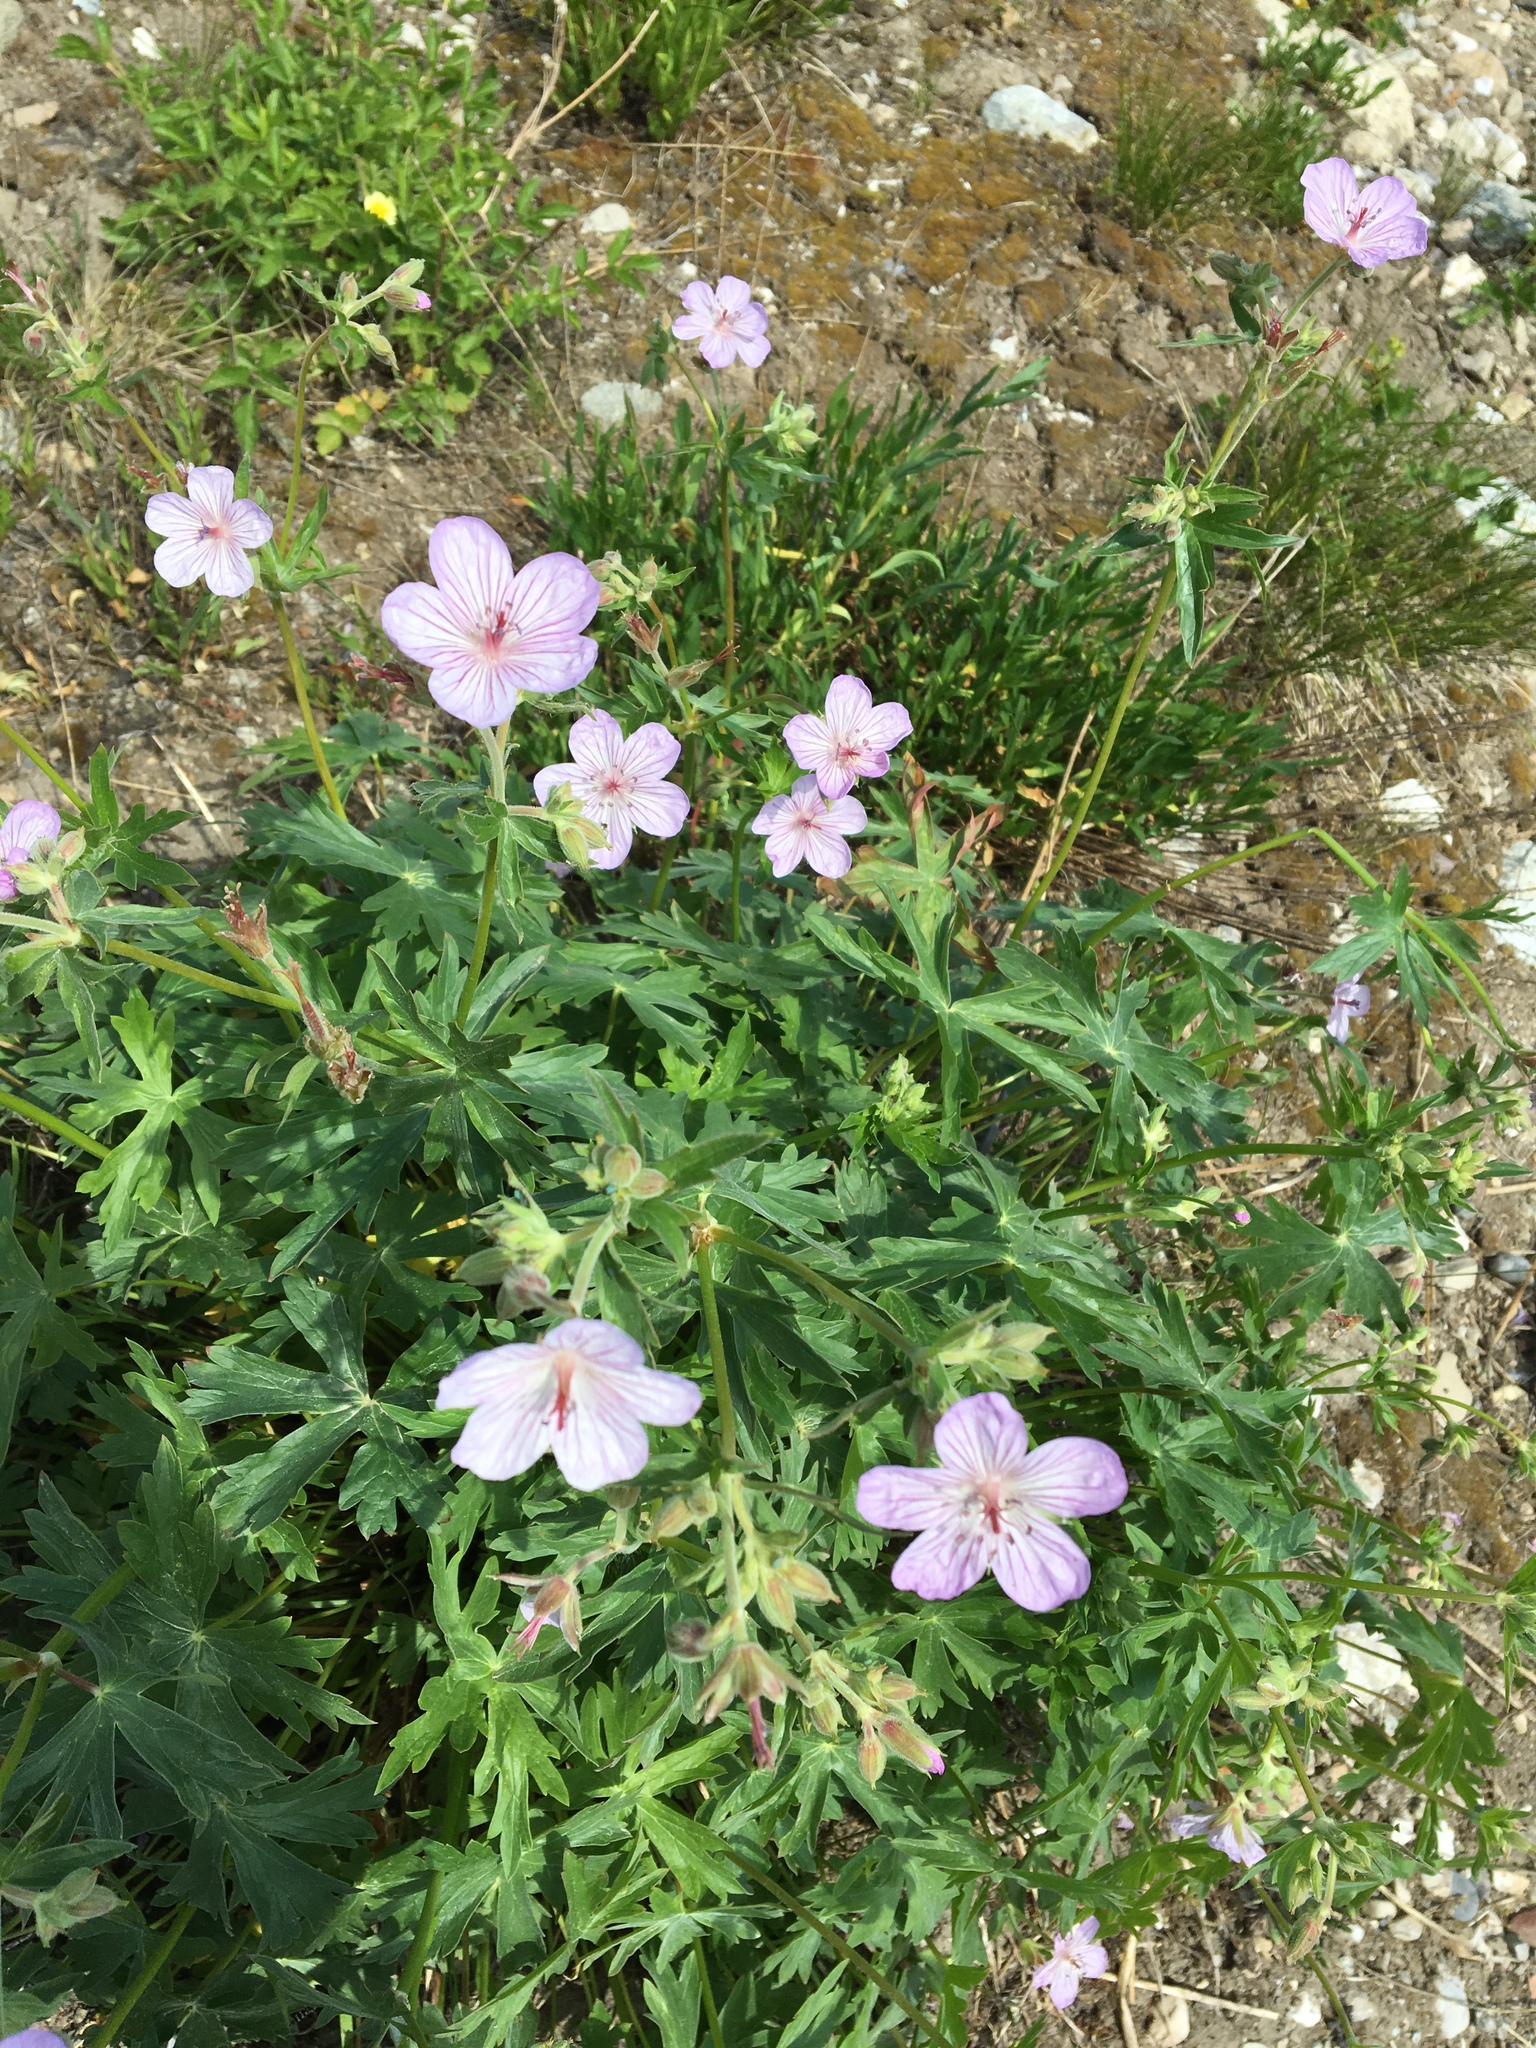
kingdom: Plantae
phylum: Tracheophyta
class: Magnoliopsida
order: Geraniales
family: Geraniaceae
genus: Geranium
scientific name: Geranium richardsonii
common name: Richardson's crane's-bill
